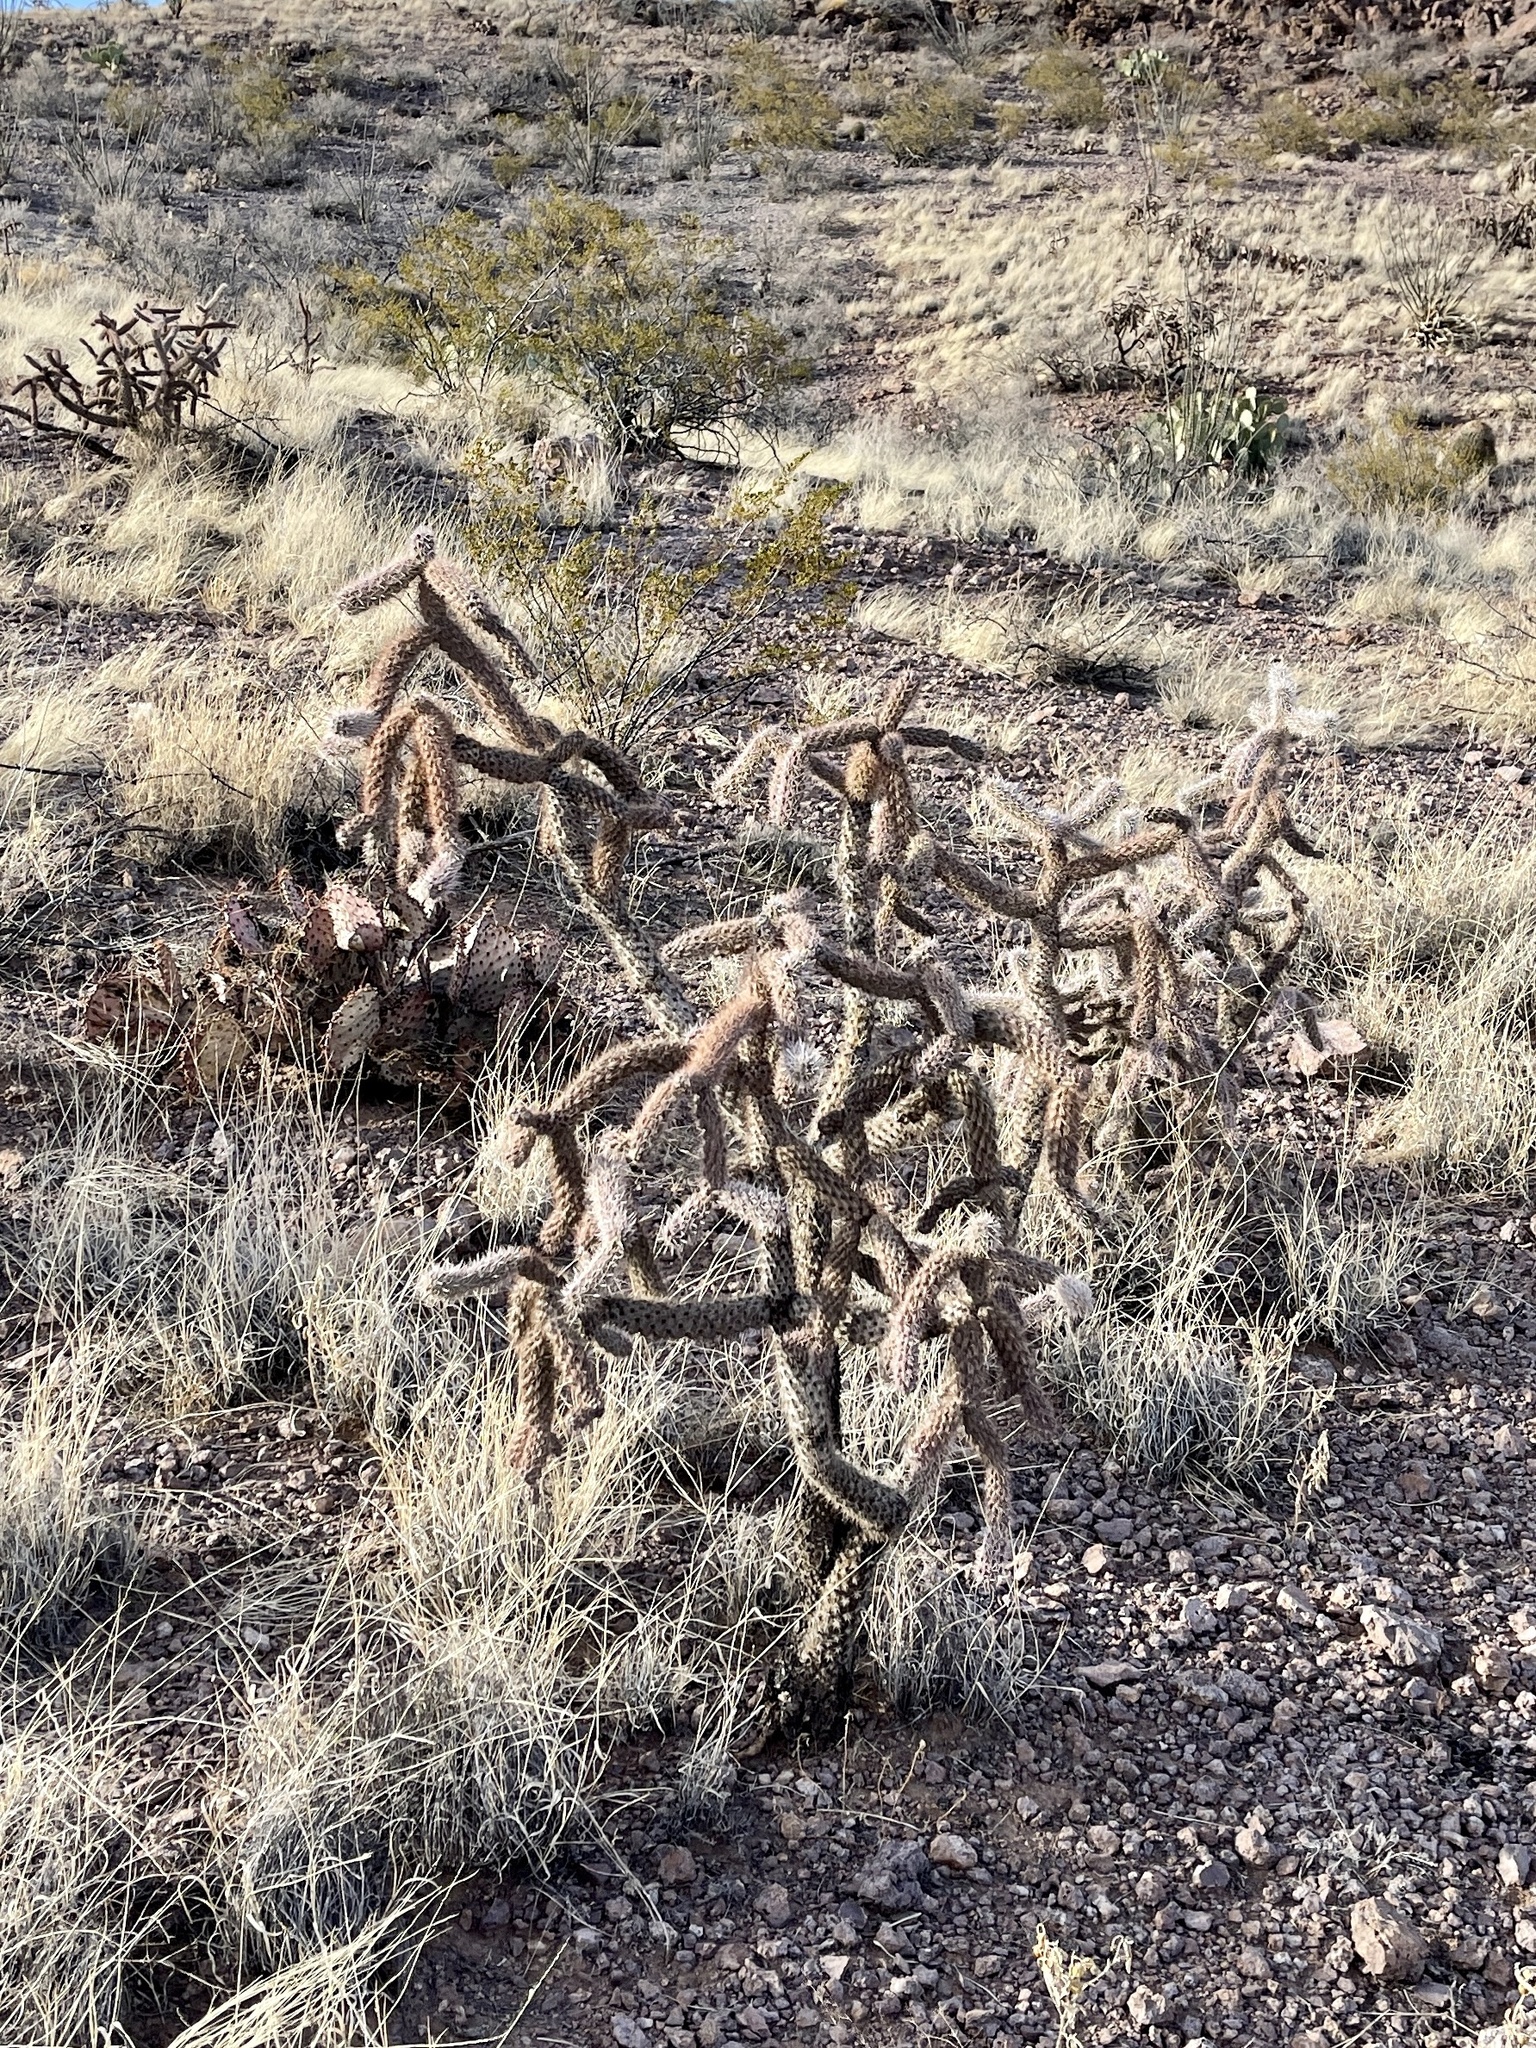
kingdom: Plantae
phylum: Tracheophyta
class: Magnoliopsida
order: Caryophyllales
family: Cactaceae
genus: Cylindropuntia
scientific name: Cylindropuntia imbricata
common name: Candelabrum cactus
